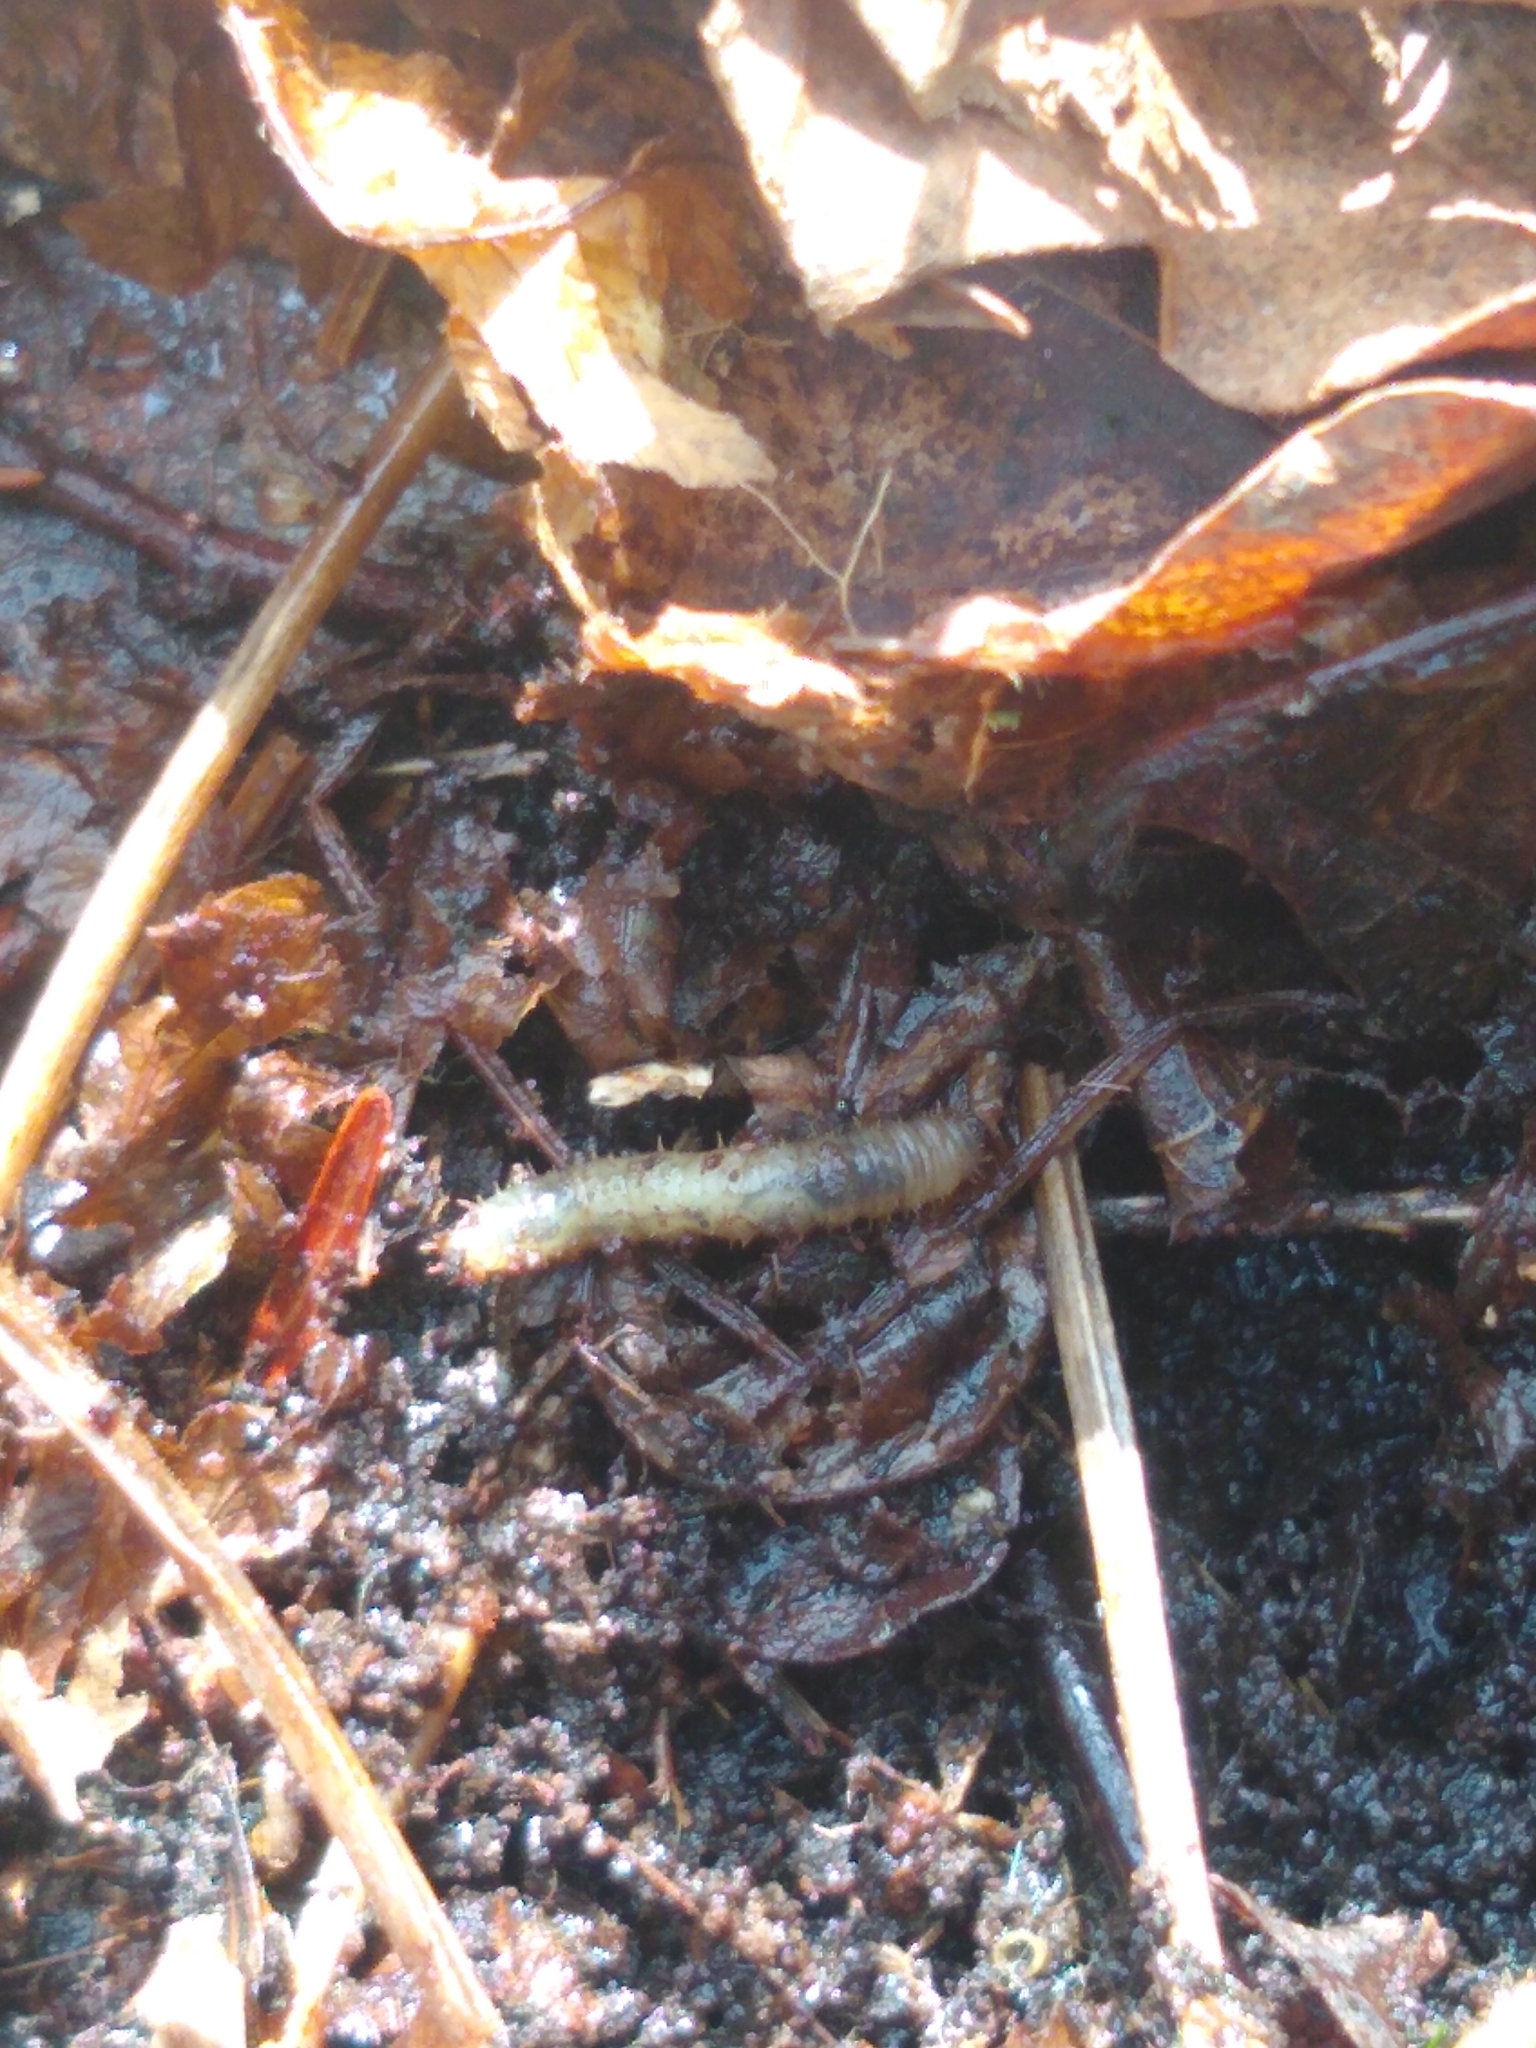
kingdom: Animalia
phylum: Arthropoda
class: Insecta
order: Diptera
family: Bibionidae
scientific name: Bibionidae
